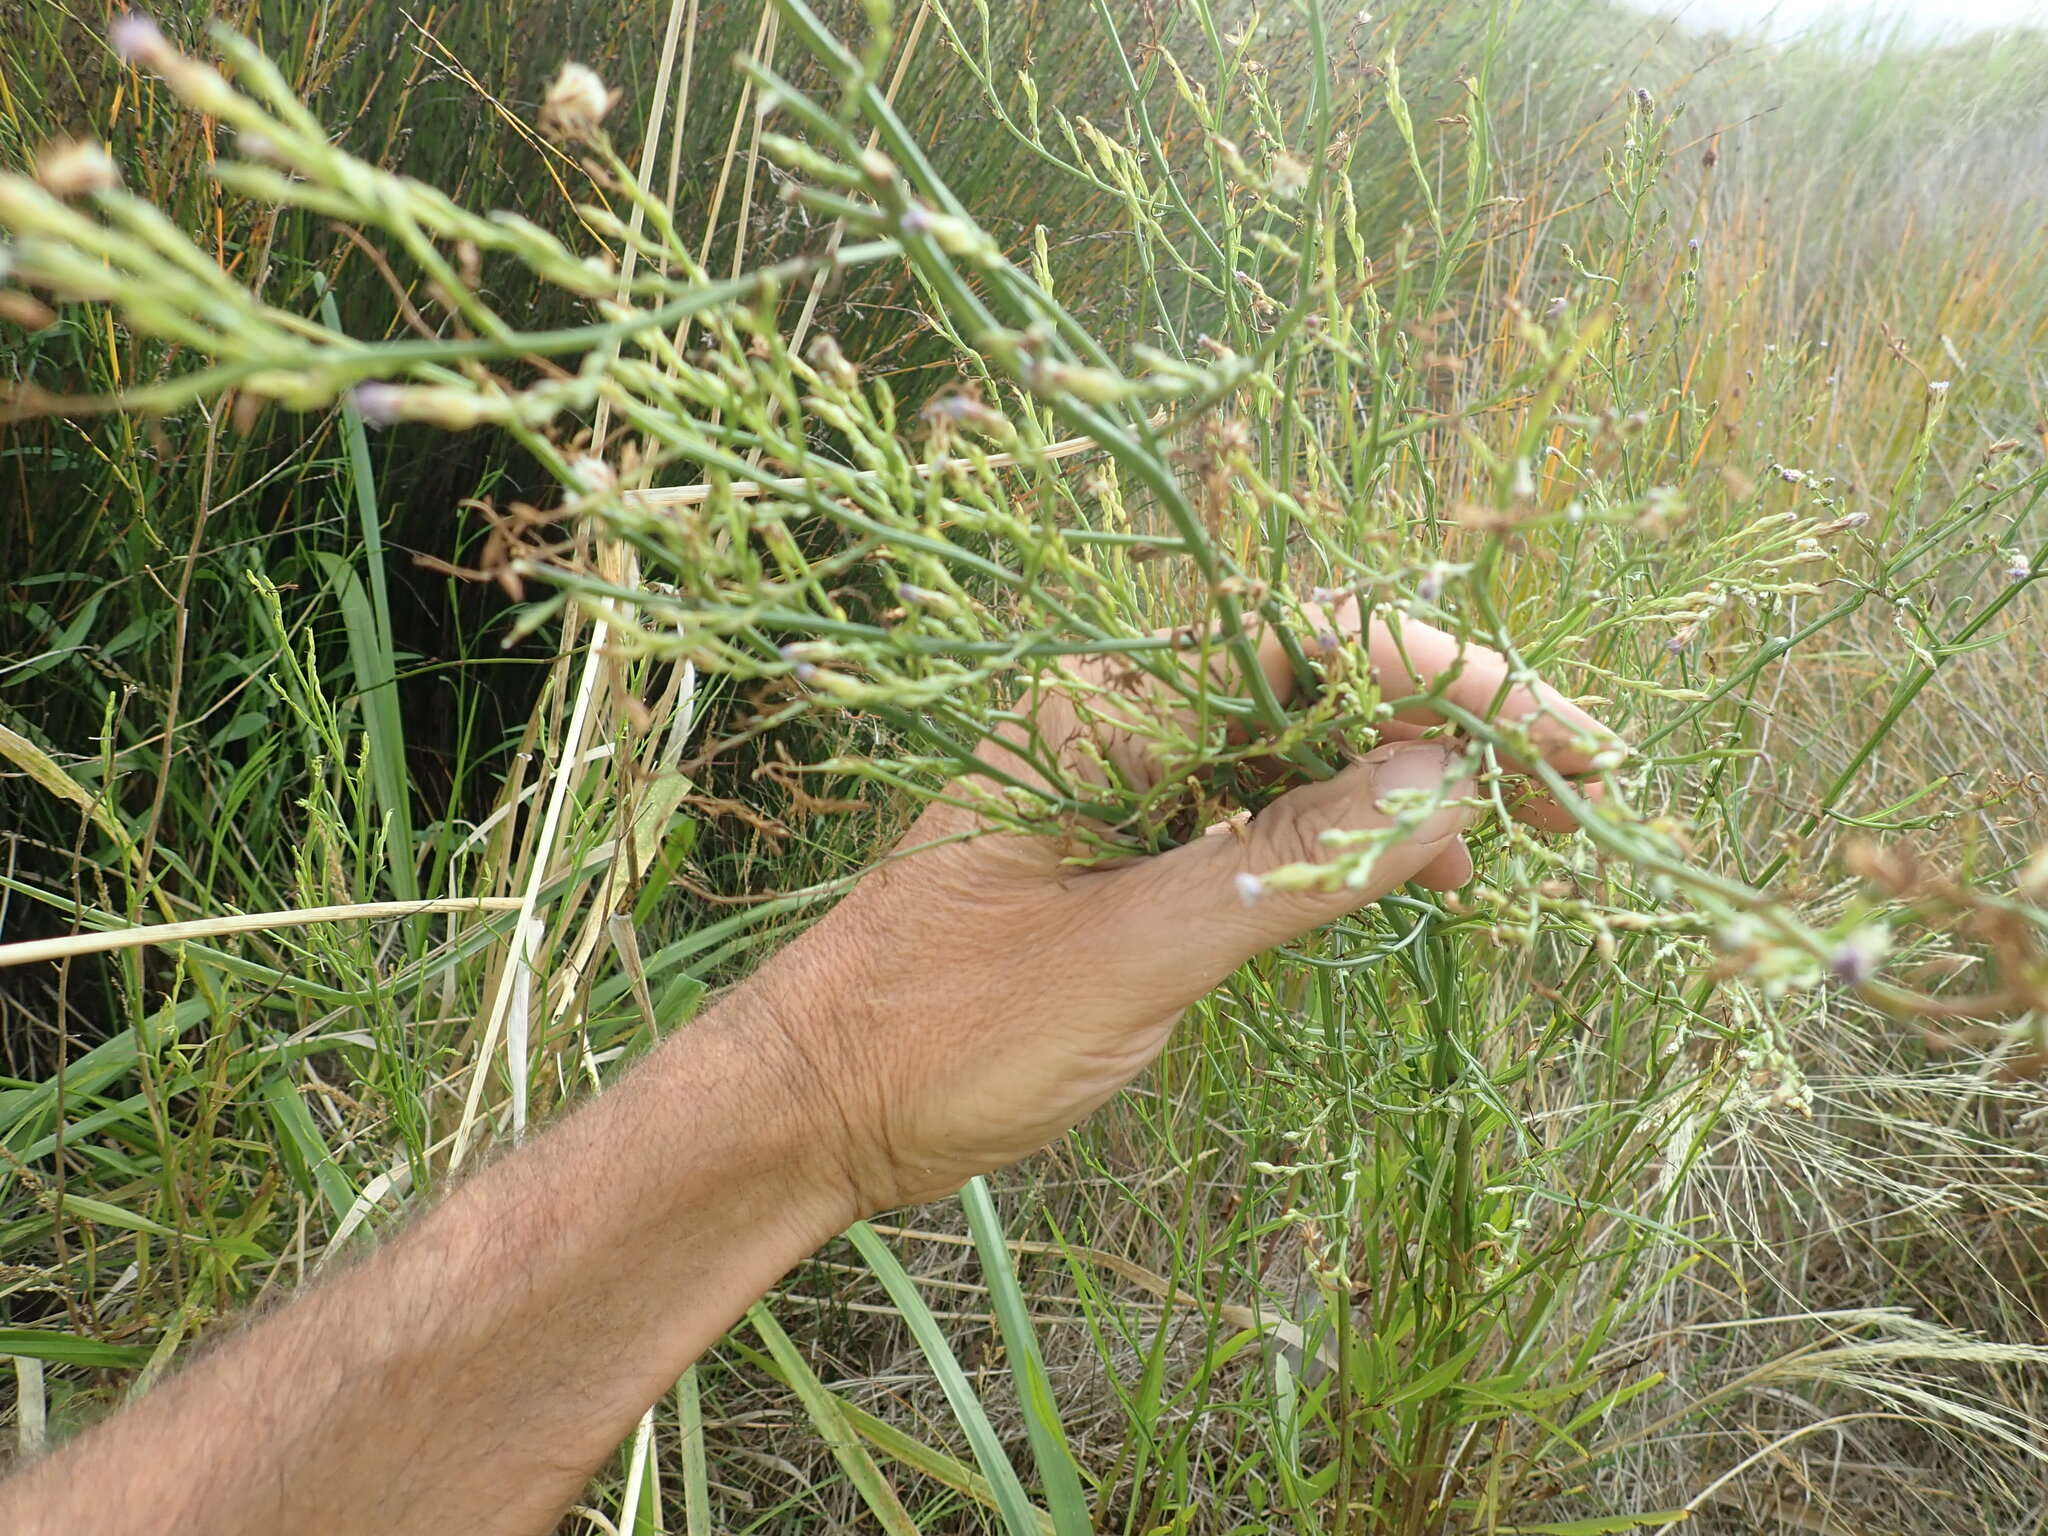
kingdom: Plantae
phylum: Tracheophyta
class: Magnoliopsida
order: Asterales
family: Asteraceae
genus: Symphyotrichum
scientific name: Symphyotrichum subulatum
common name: Annual saltmarsh aster
